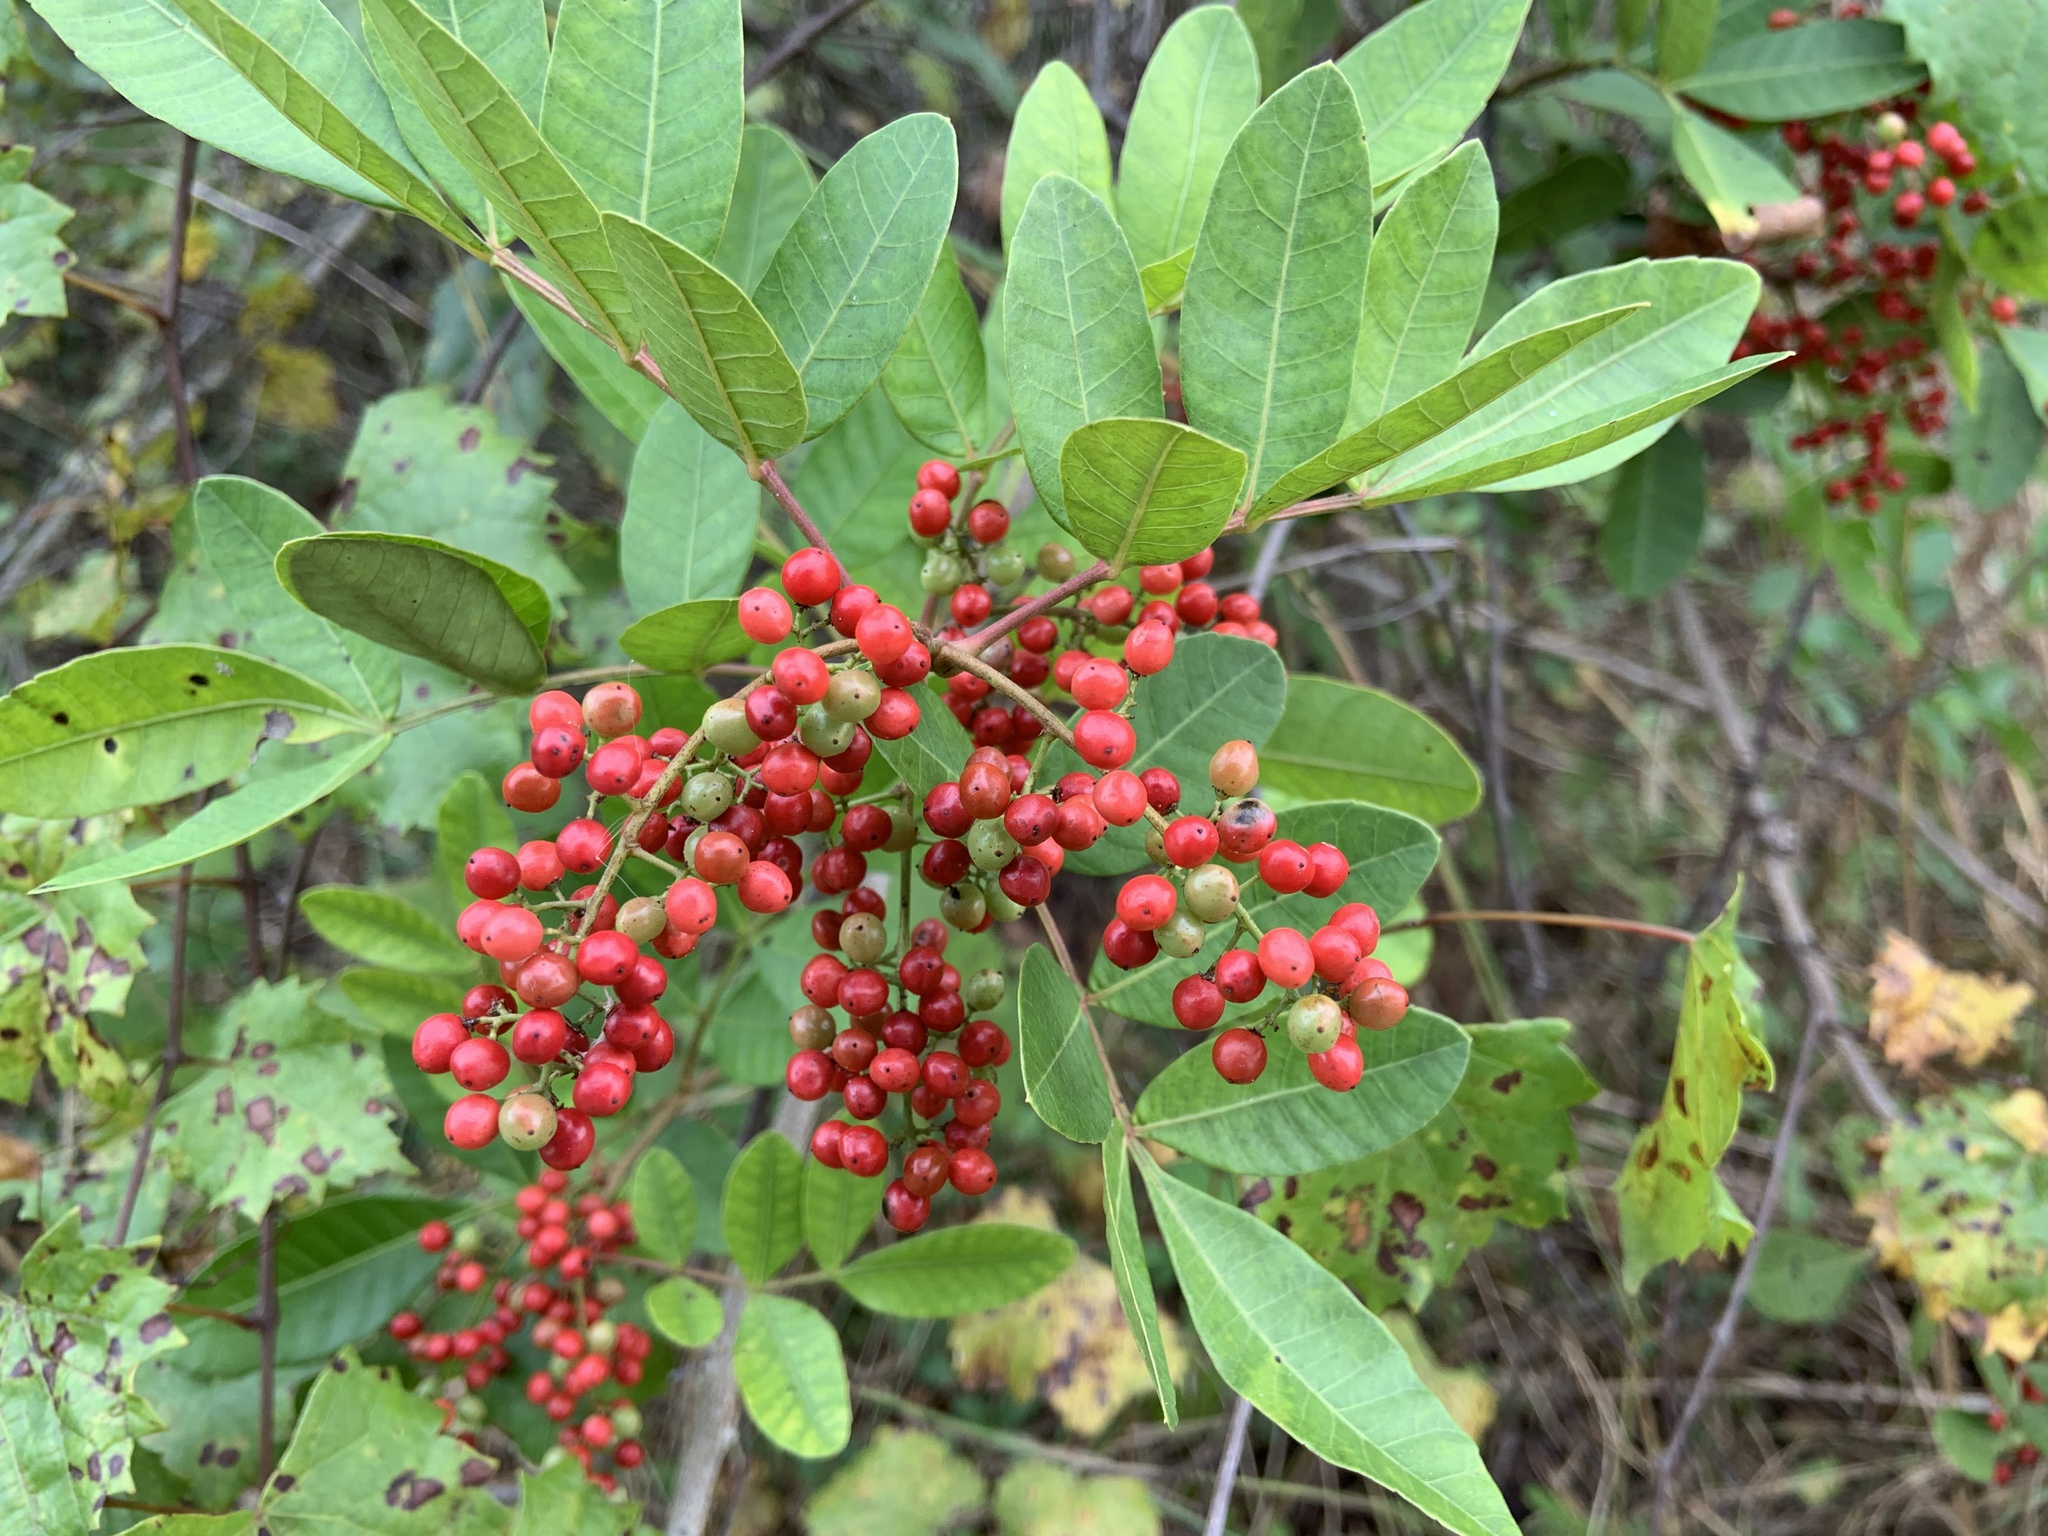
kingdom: Plantae
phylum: Tracheophyta
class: Magnoliopsida
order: Sapindales
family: Anacardiaceae
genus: Schinus
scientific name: Schinus terebinthifolia
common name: Brazilian peppertree
